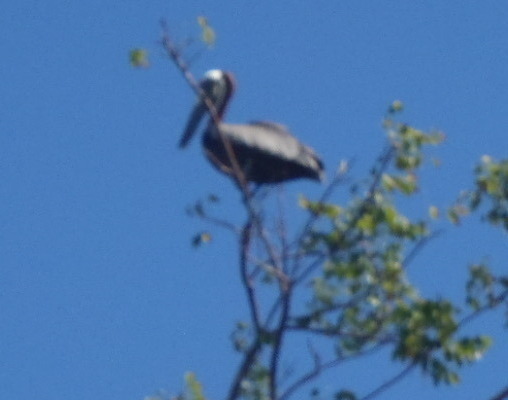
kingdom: Animalia
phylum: Chordata
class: Aves
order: Pelecaniformes
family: Pelecanidae
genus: Pelecanus
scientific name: Pelecanus occidentalis
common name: Brown pelican
